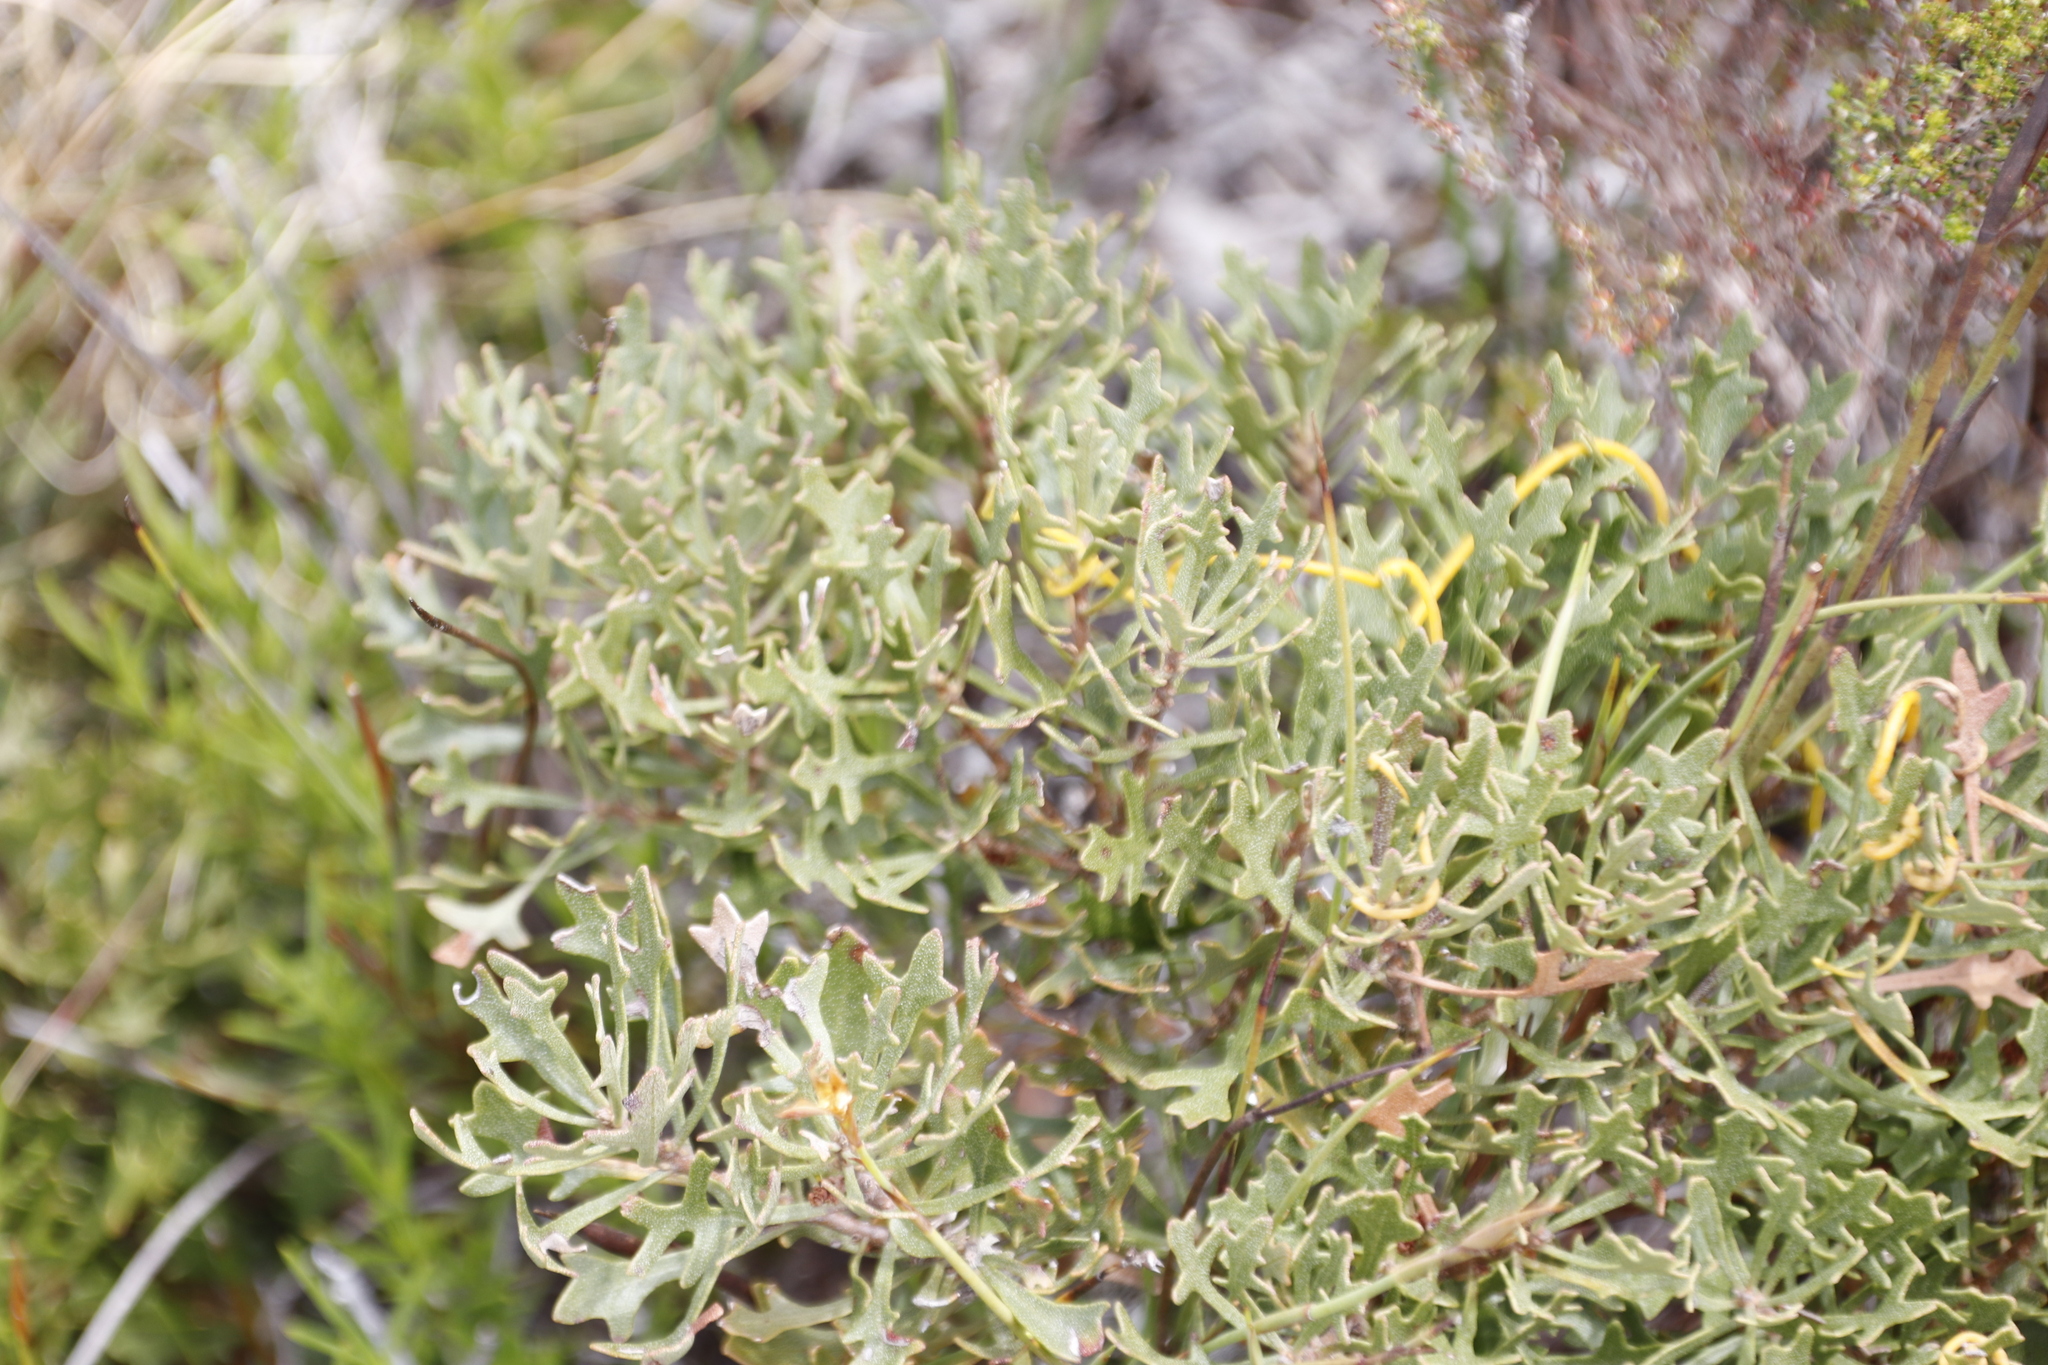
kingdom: Plantae
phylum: Tracheophyta
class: Magnoliopsida
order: Fagales
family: Myricaceae
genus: Morella
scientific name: Morella quercifolia
